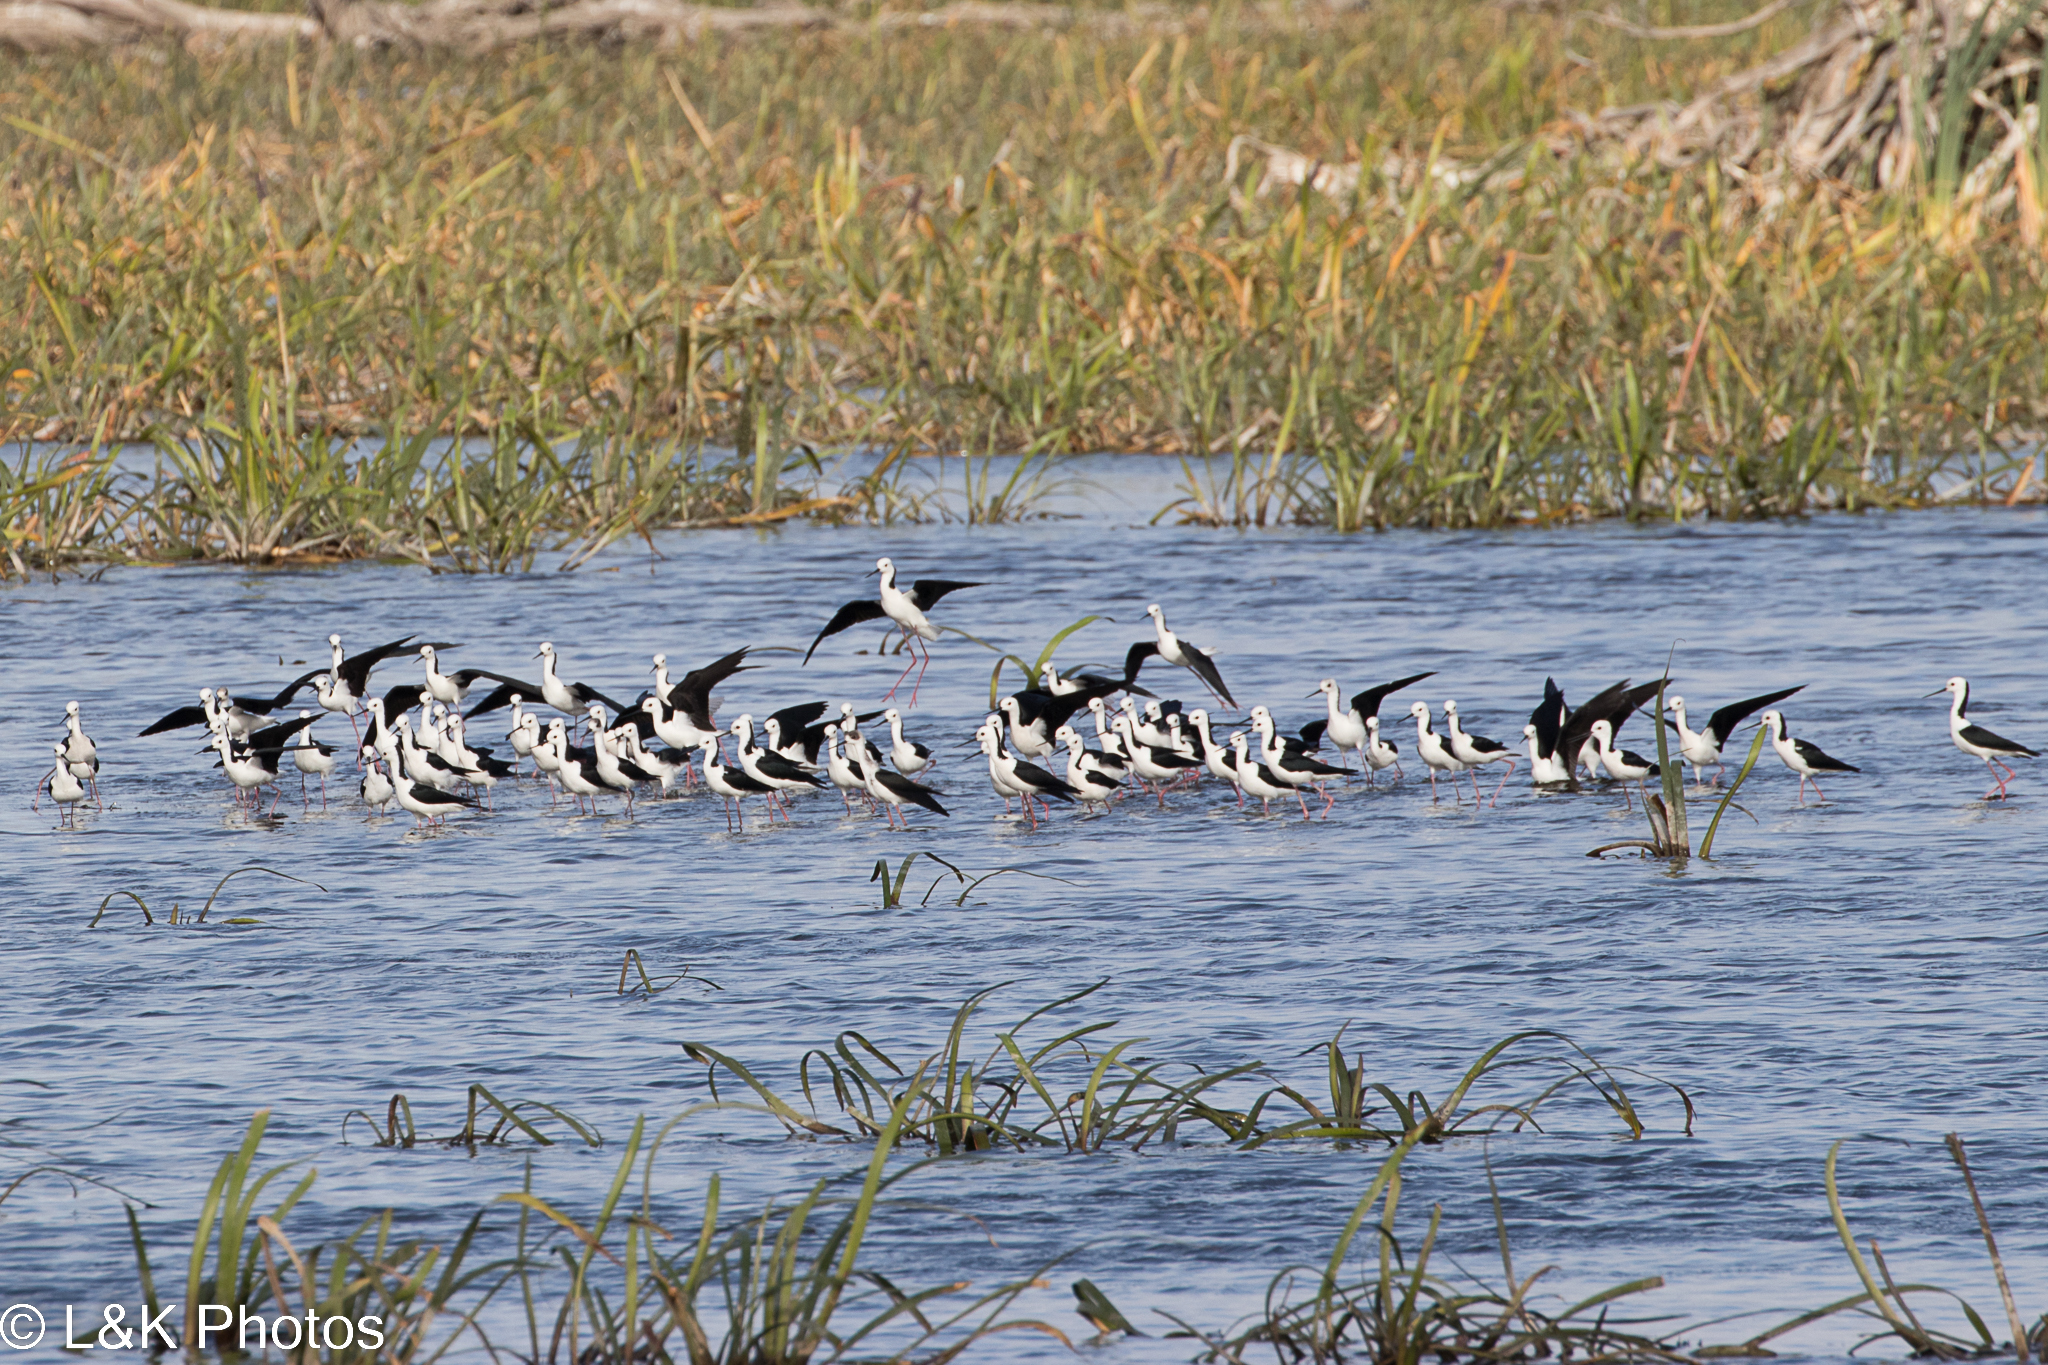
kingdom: Animalia
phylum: Chordata
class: Aves
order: Charadriiformes
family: Recurvirostridae
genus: Himantopus
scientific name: Himantopus leucocephalus
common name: White-headed stilt
